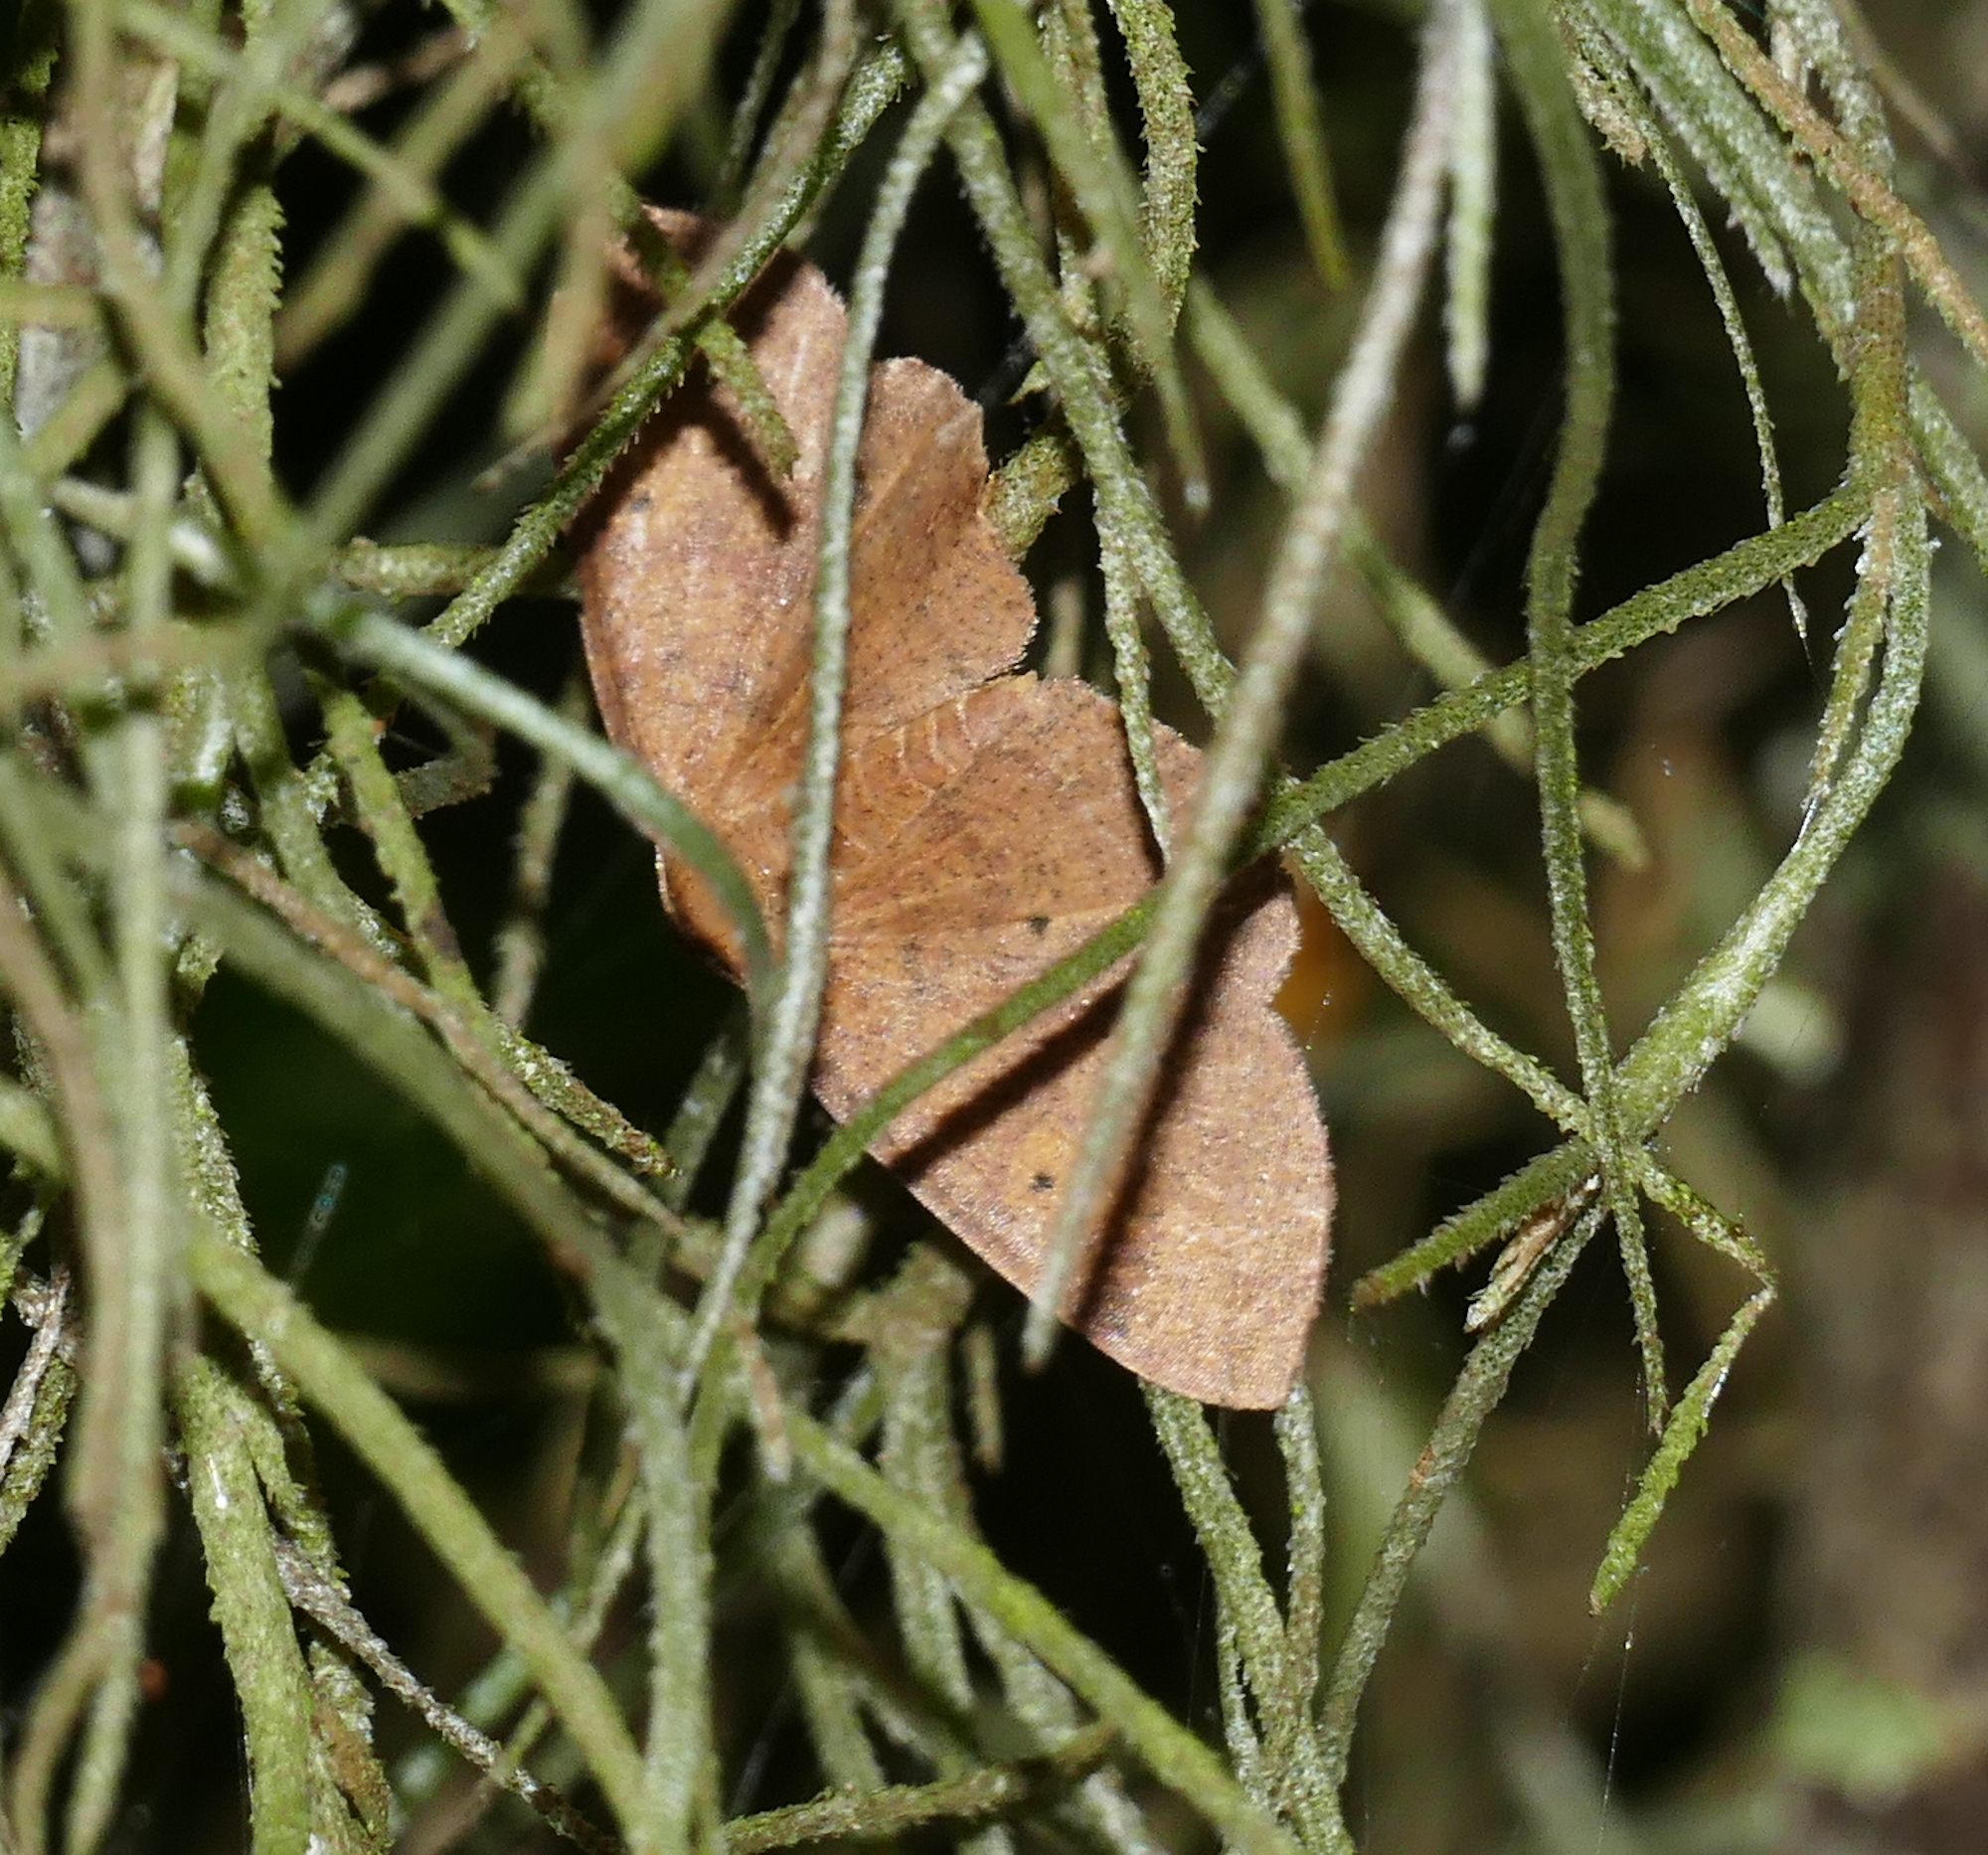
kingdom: Animalia
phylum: Arthropoda
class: Insecta
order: Lepidoptera
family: Geometridae
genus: Ilexia
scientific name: Ilexia intractata
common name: Black-dotted ruddy moth
